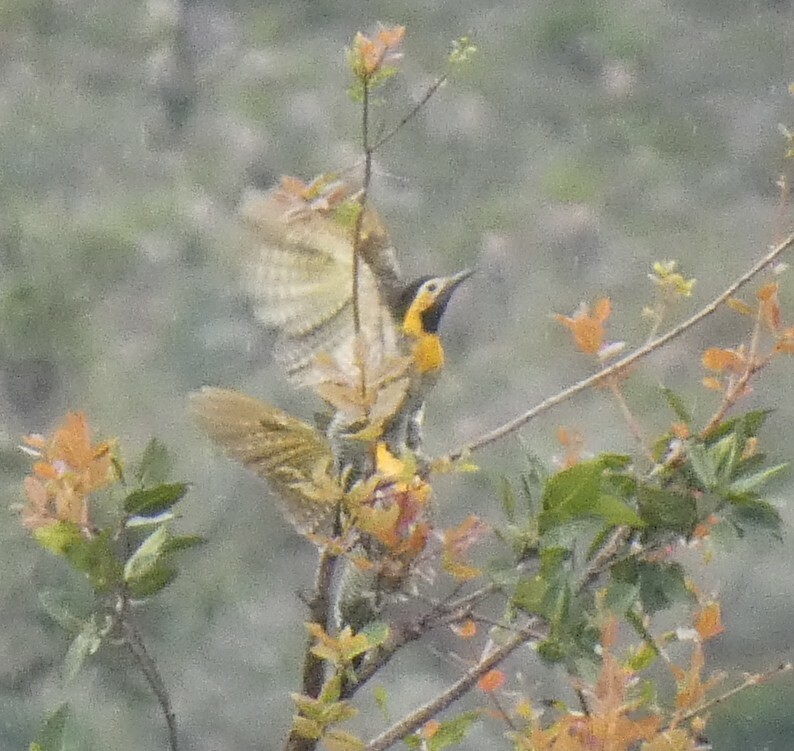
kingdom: Animalia
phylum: Chordata
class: Aves
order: Piciformes
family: Picidae
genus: Colaptes
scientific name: Colaptes campestris
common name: Campo flicker
